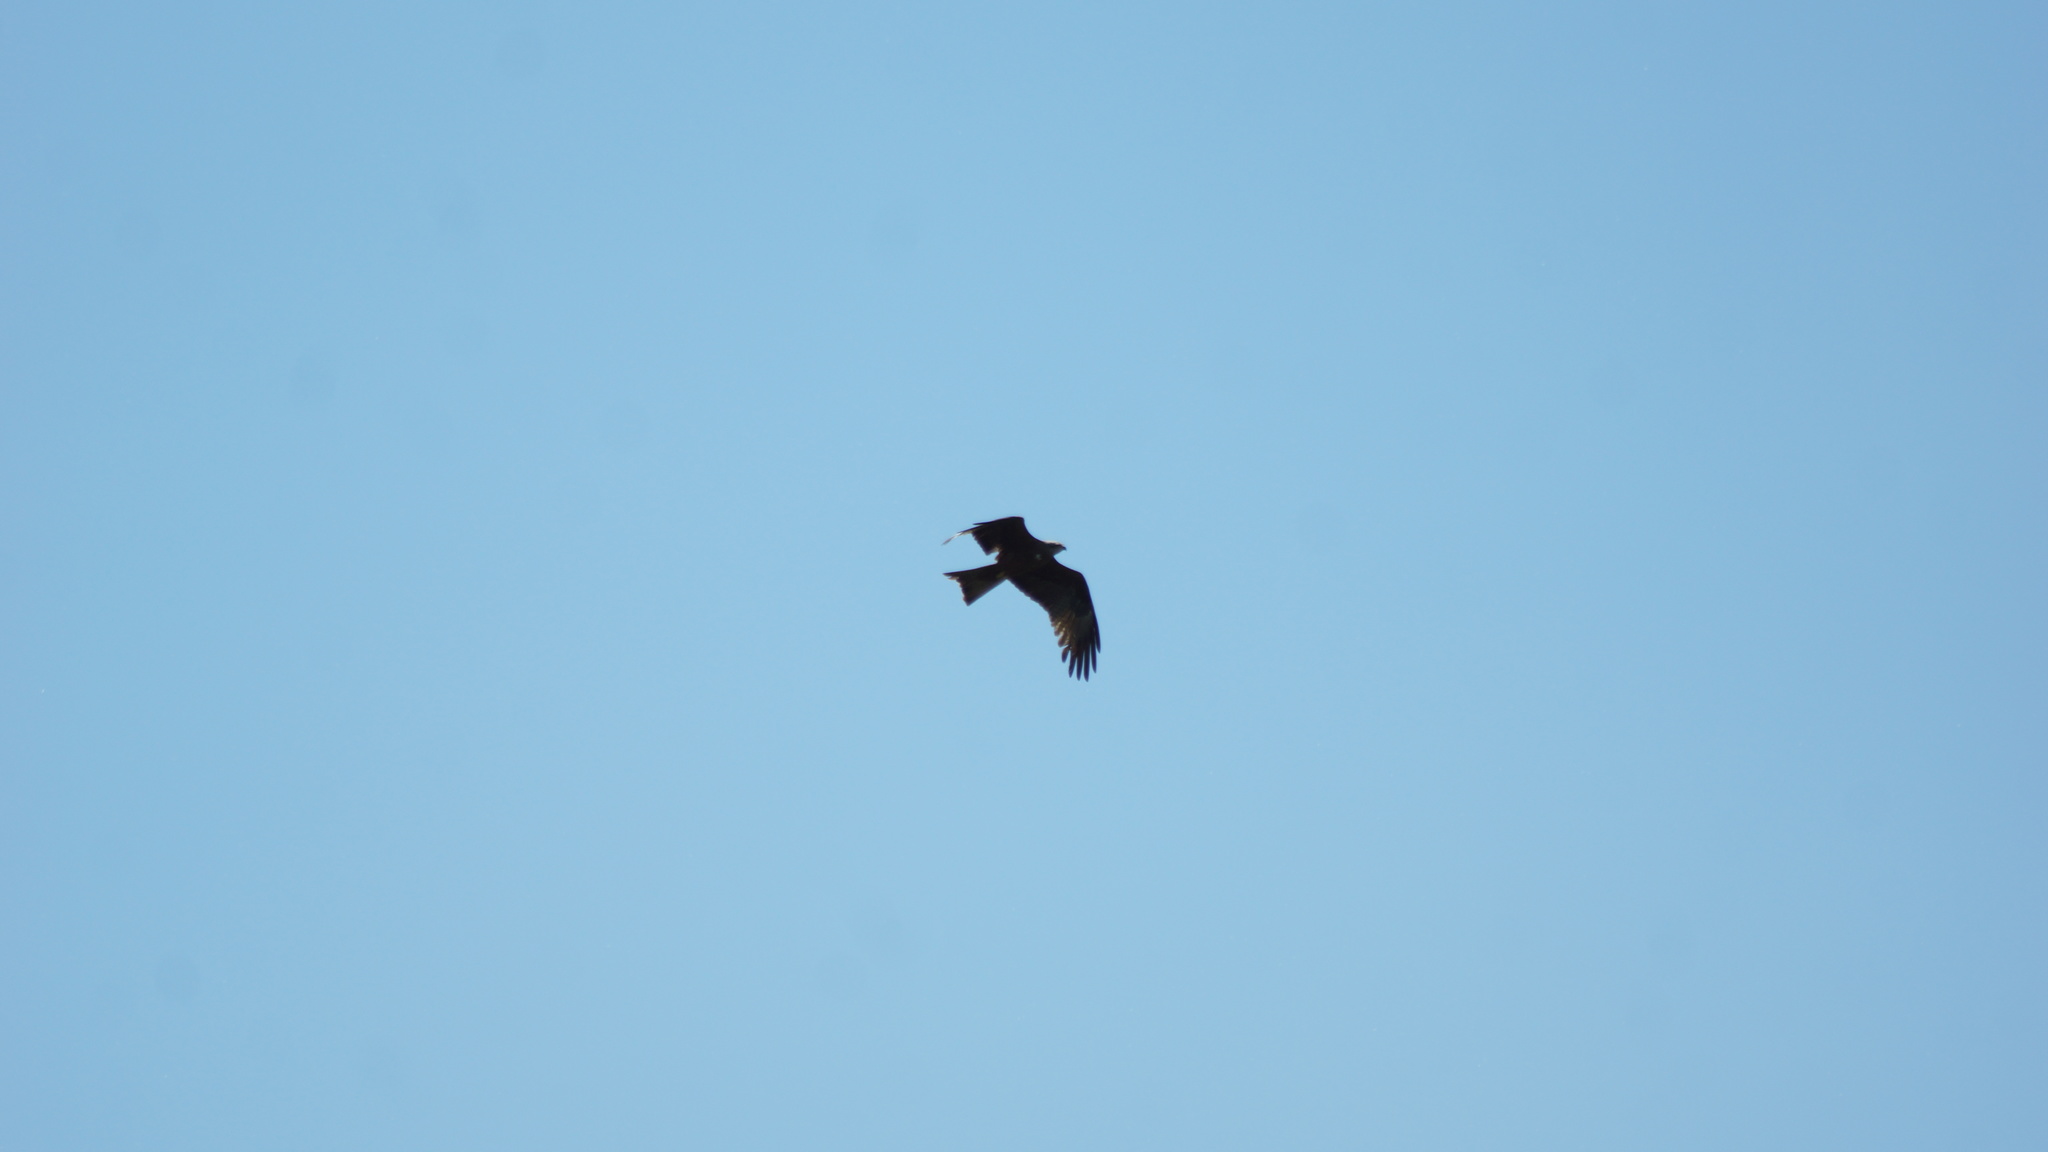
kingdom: Animalia
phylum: Chordata
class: Aves
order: Accipitriformes
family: Accipitridae
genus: Milvus
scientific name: Milvus migrans
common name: Black kite
